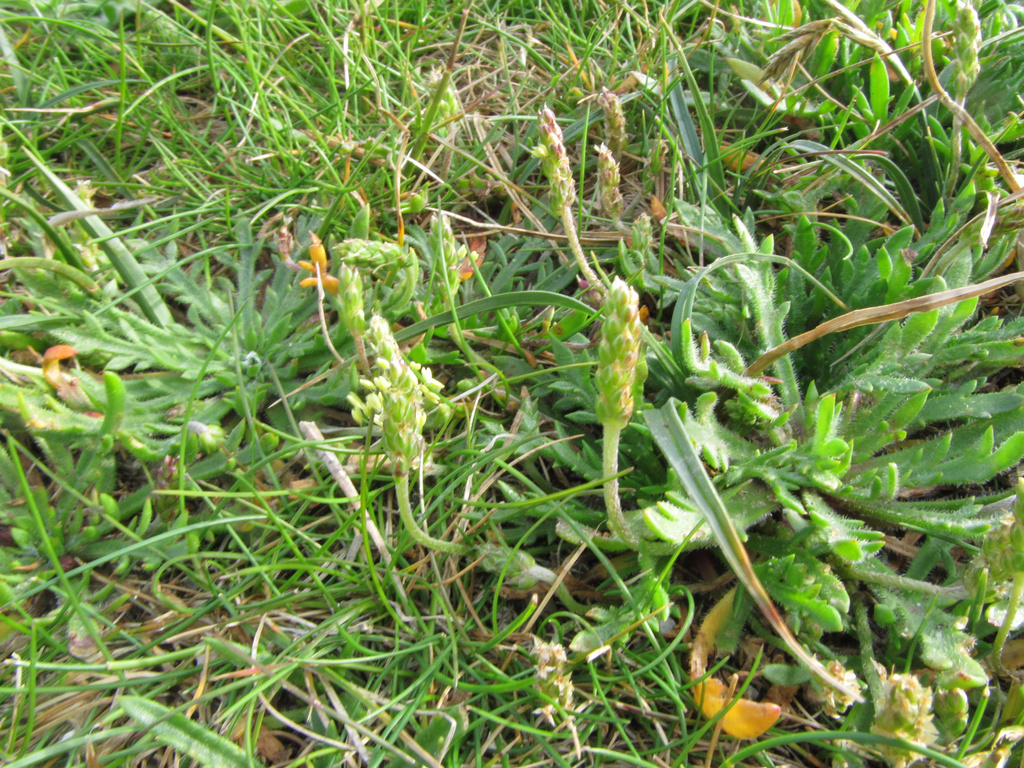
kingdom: Plantae
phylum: Tracheophyta
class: Magnoliopsida
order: Lamiales
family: Plantaginaceae
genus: Plantago
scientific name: Plantago coronopus
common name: Buck's-horn plantain
